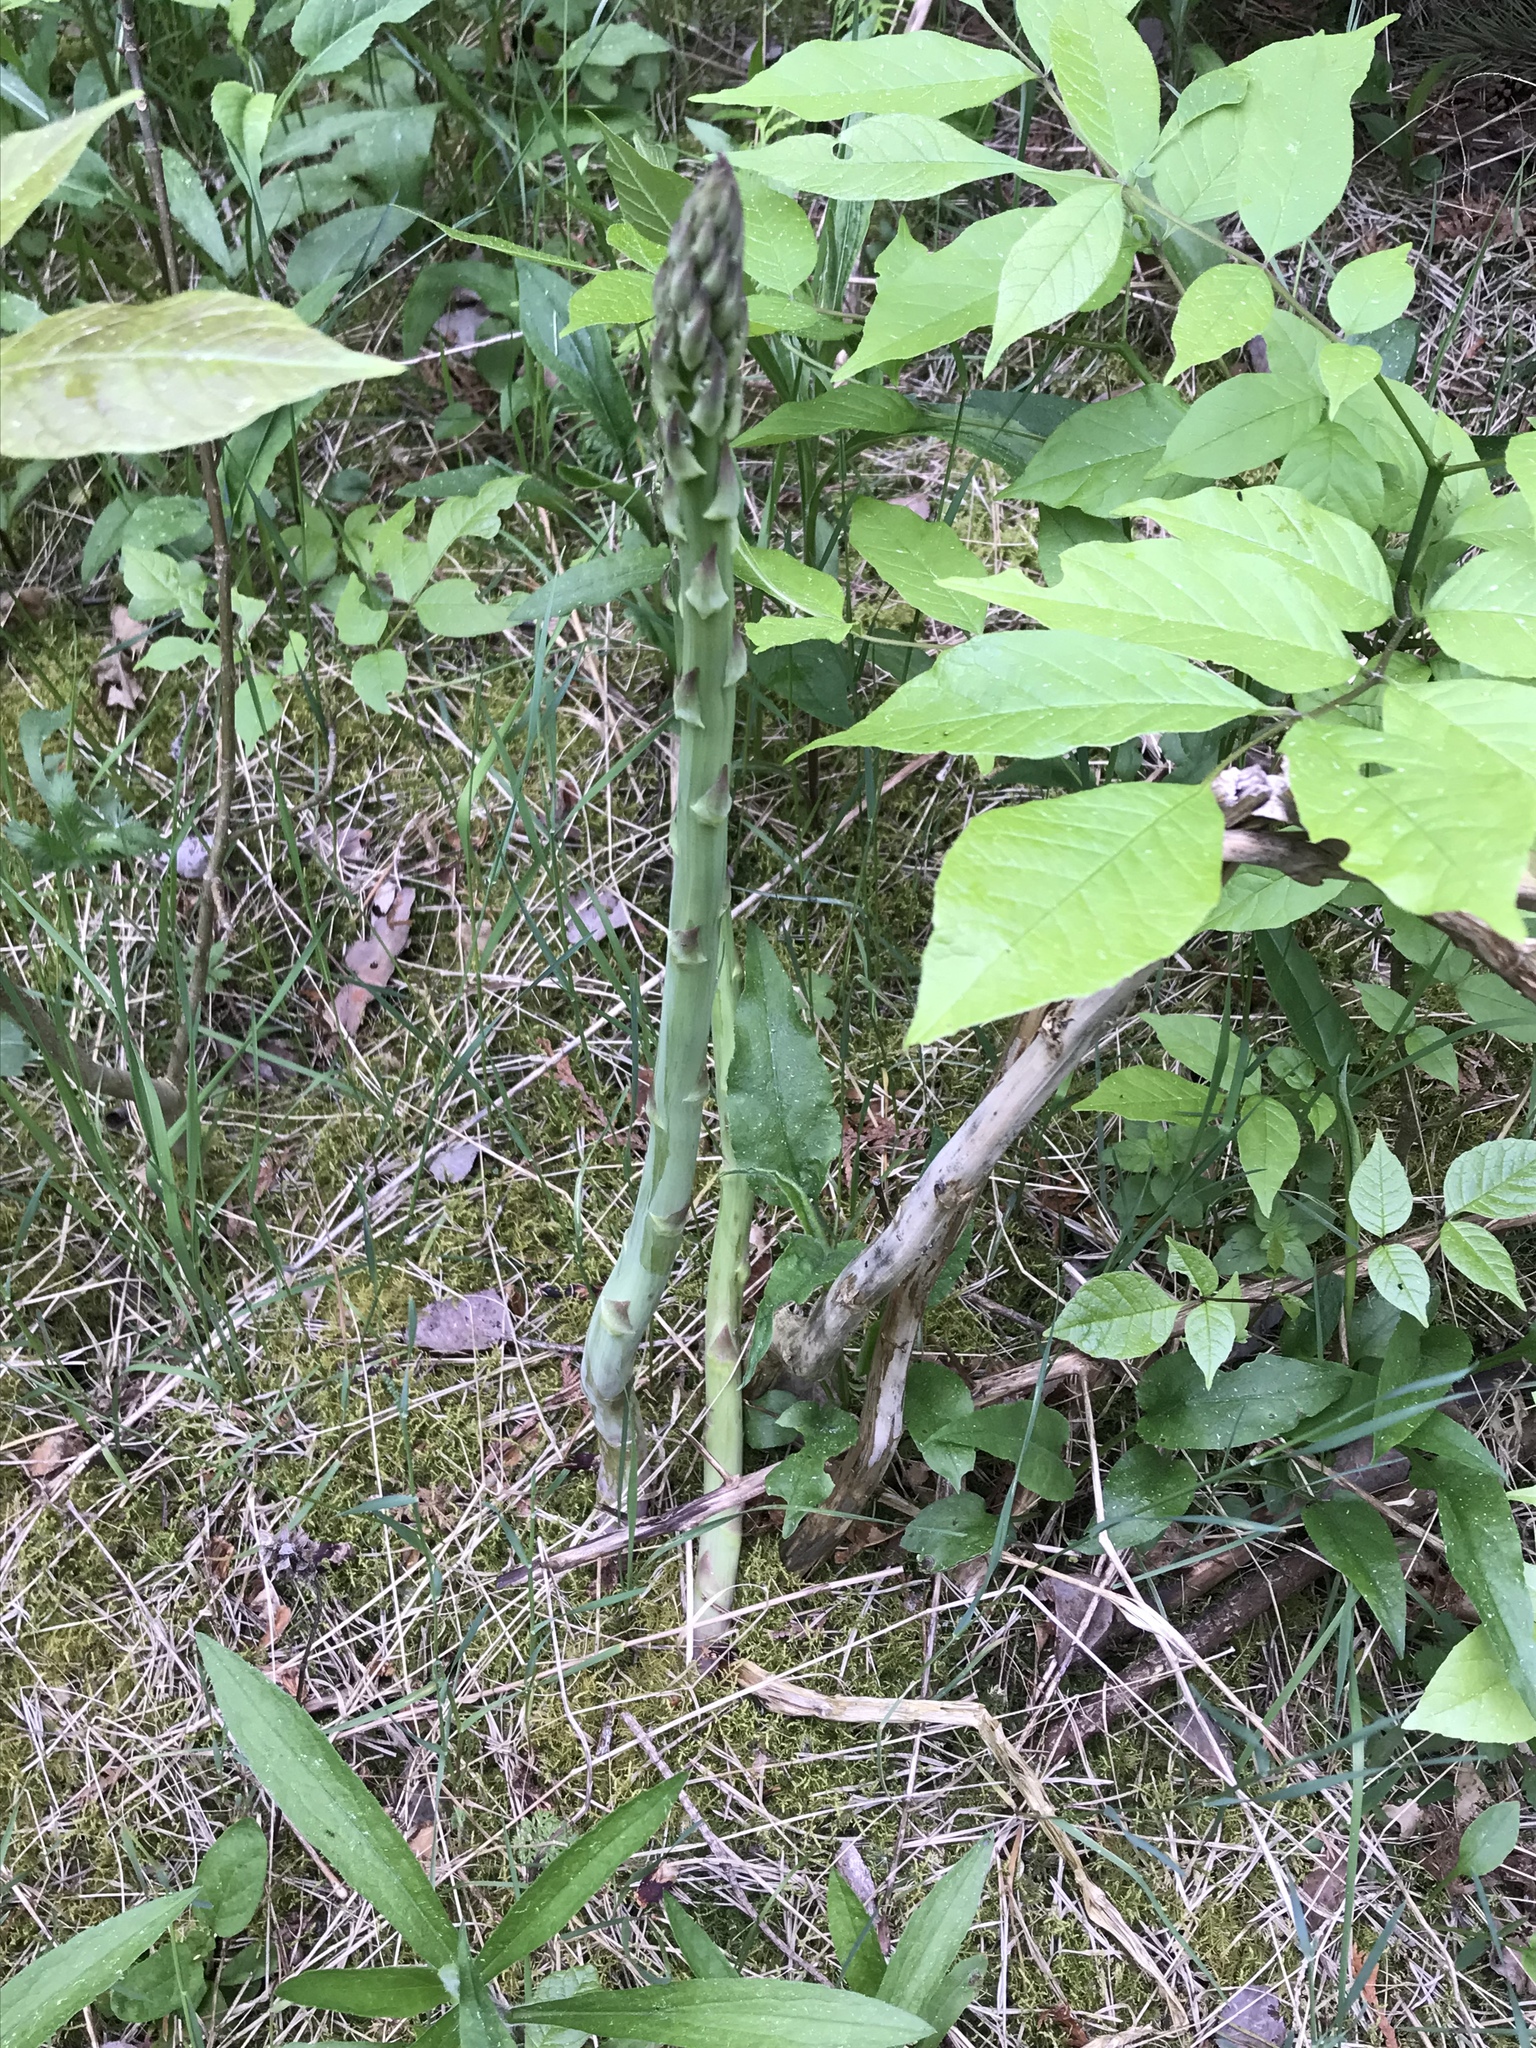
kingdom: Plantae
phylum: Tracheophyta
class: Liliopsida
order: Asparagales
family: Asparagaceae
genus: Asparagus
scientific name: Asparagus officinalis
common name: Garden asparagus
